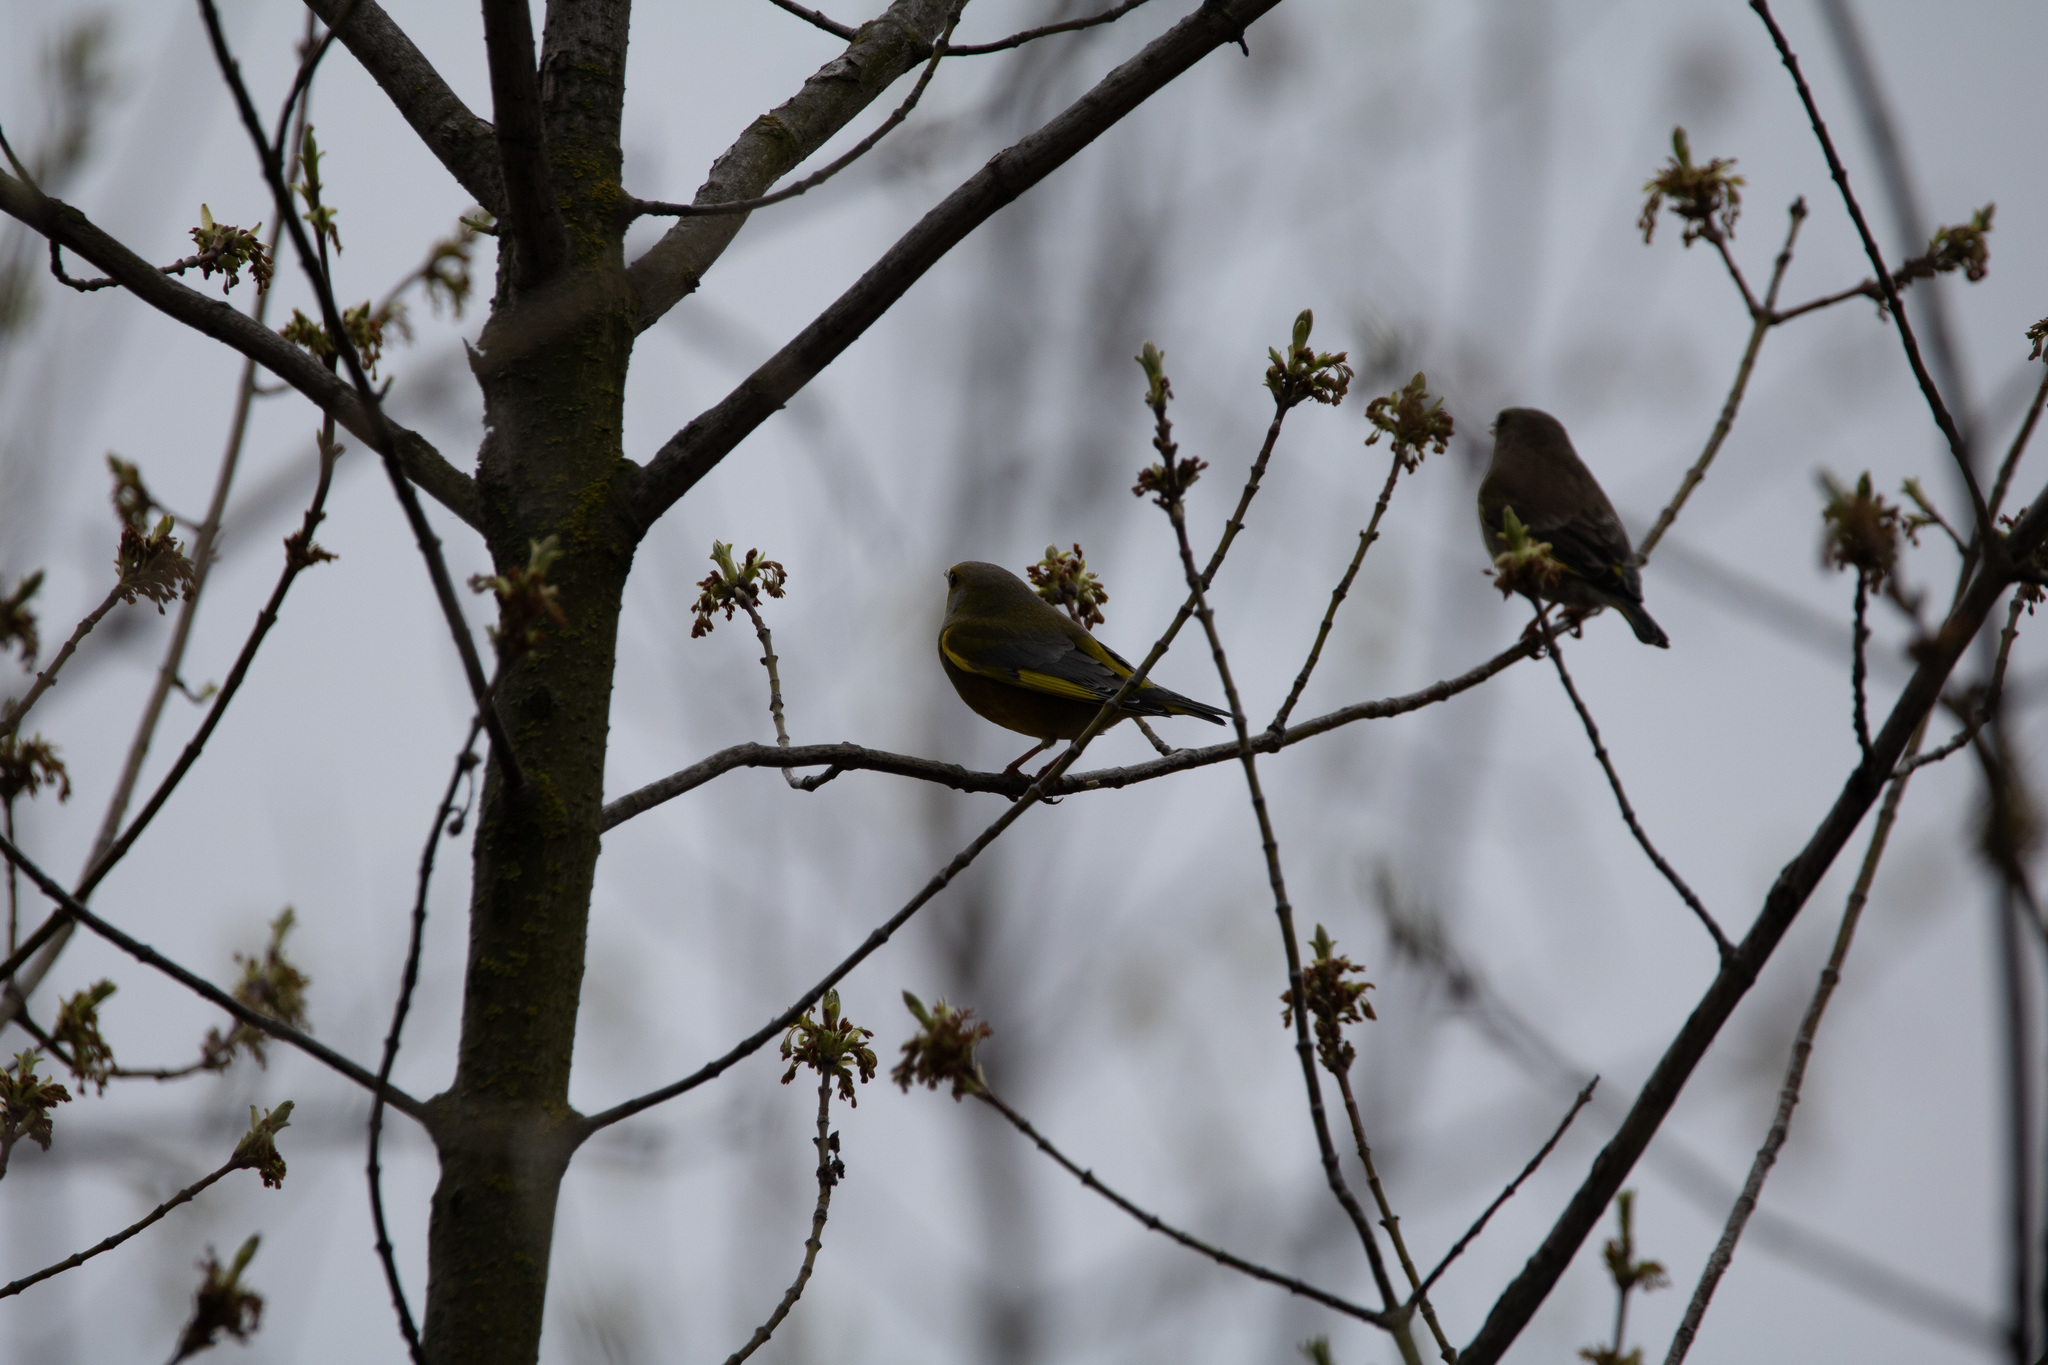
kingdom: Plantae
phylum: Tracheophyta
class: Liliopsida
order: Poales
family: Poaceae
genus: Chloris
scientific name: Chloris chloris
